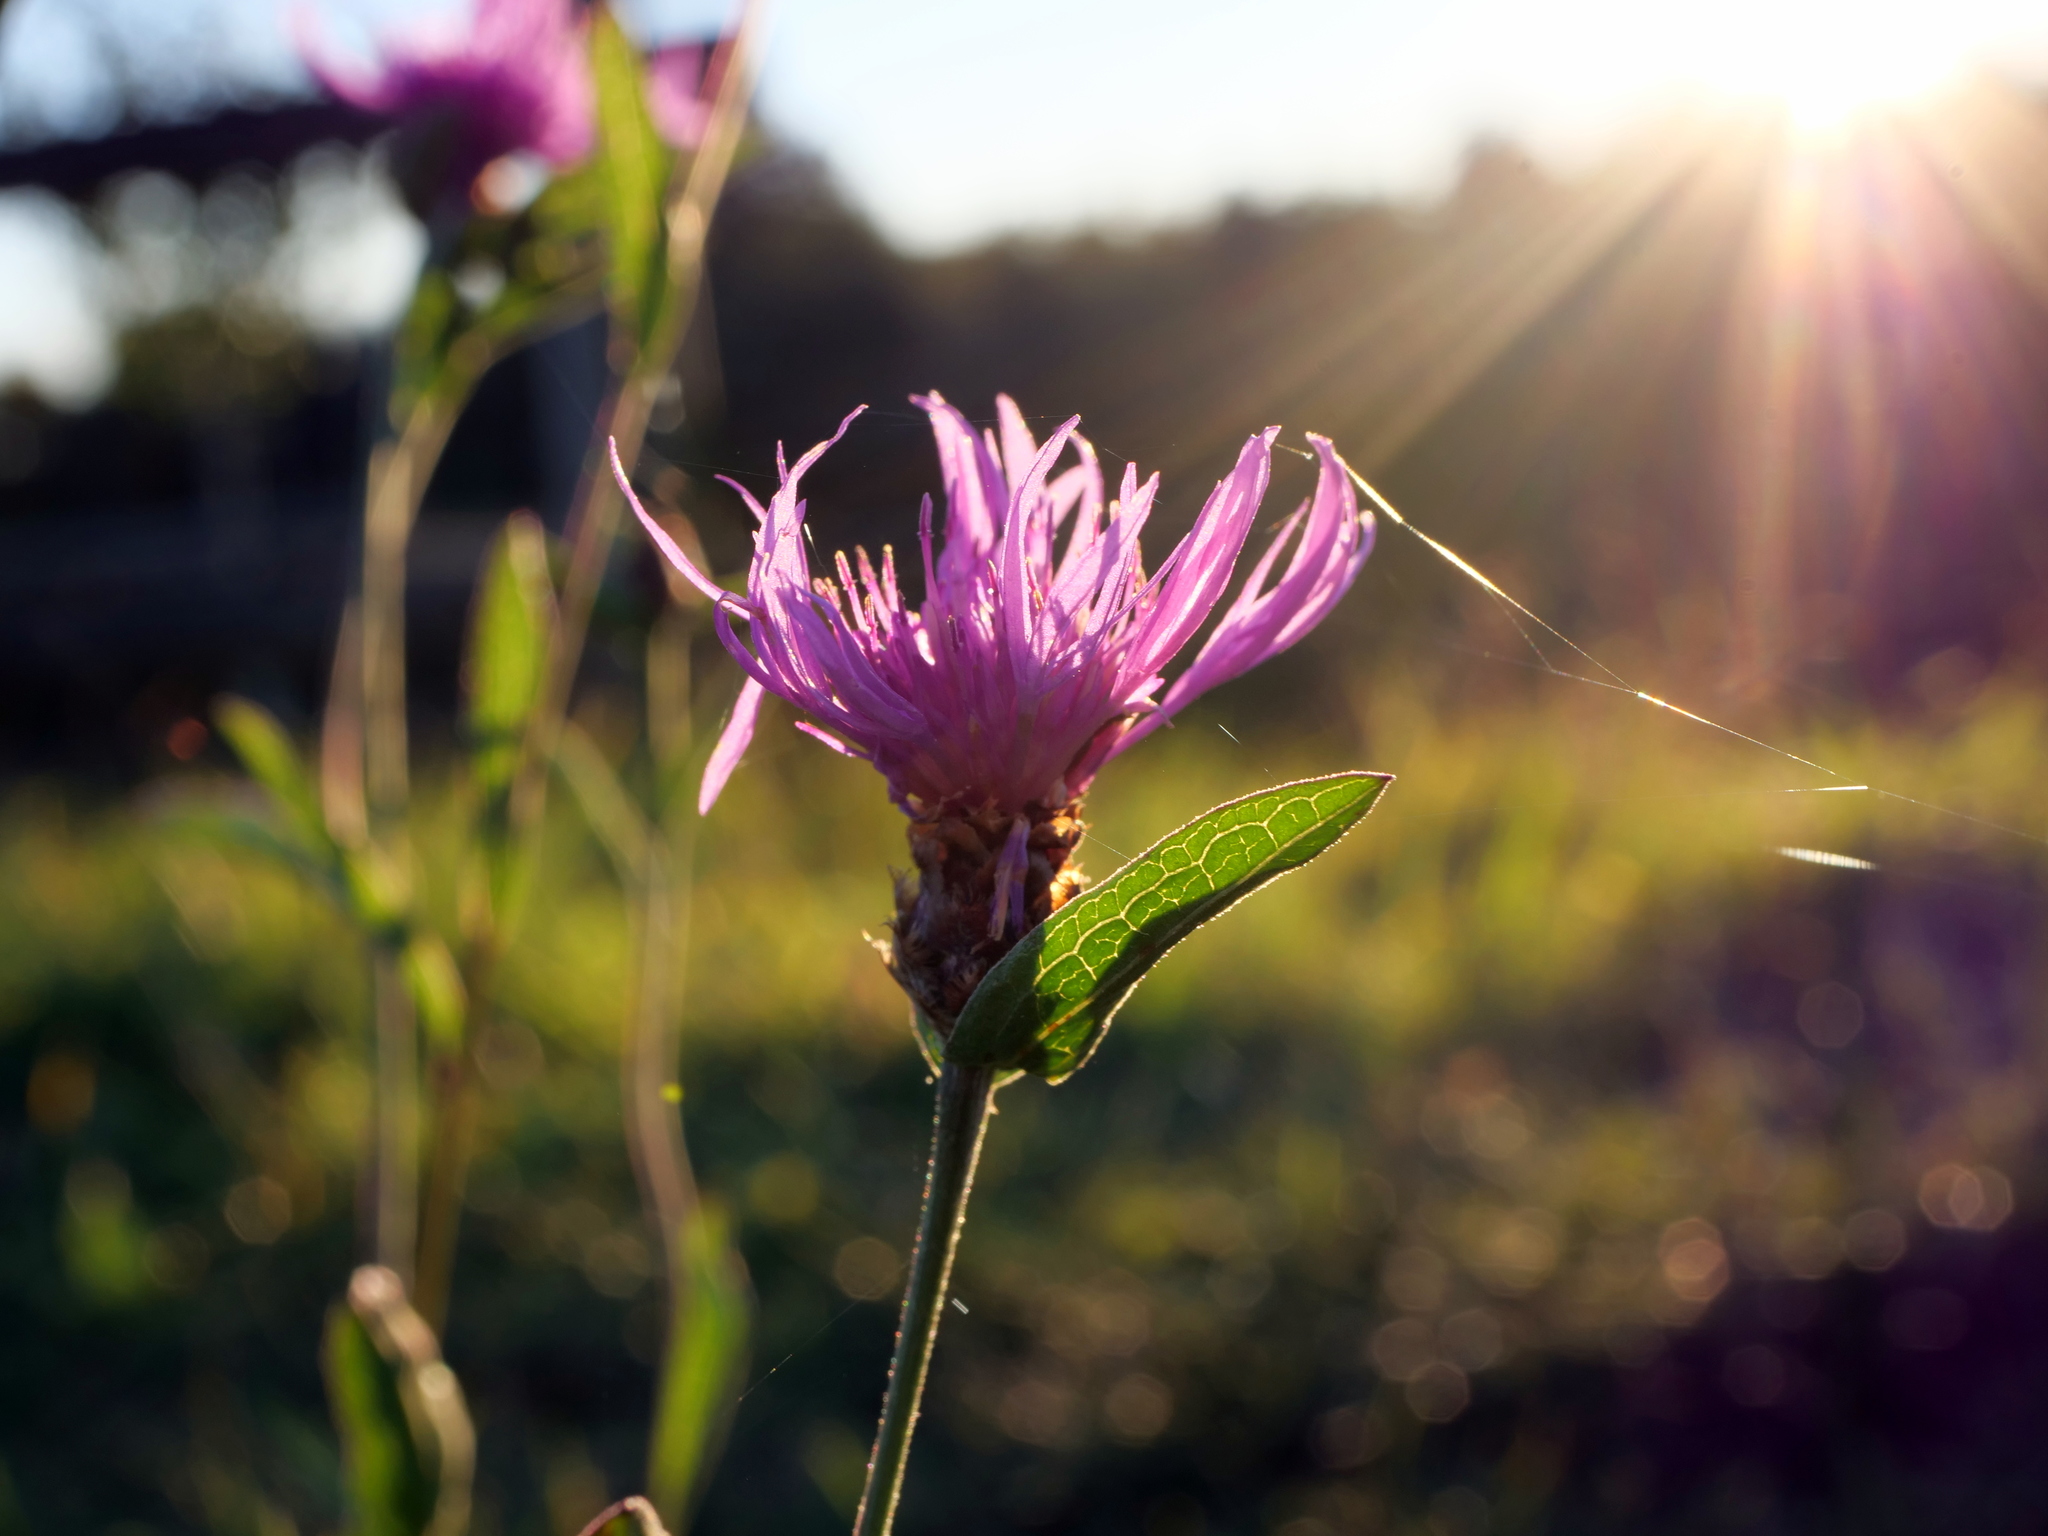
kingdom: Plantae
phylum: Tracheophyta
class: Magnoliopsida
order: Asterales
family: Asteraceae
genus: Centaurea
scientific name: Centaurea jacea
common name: Brown knapweed
